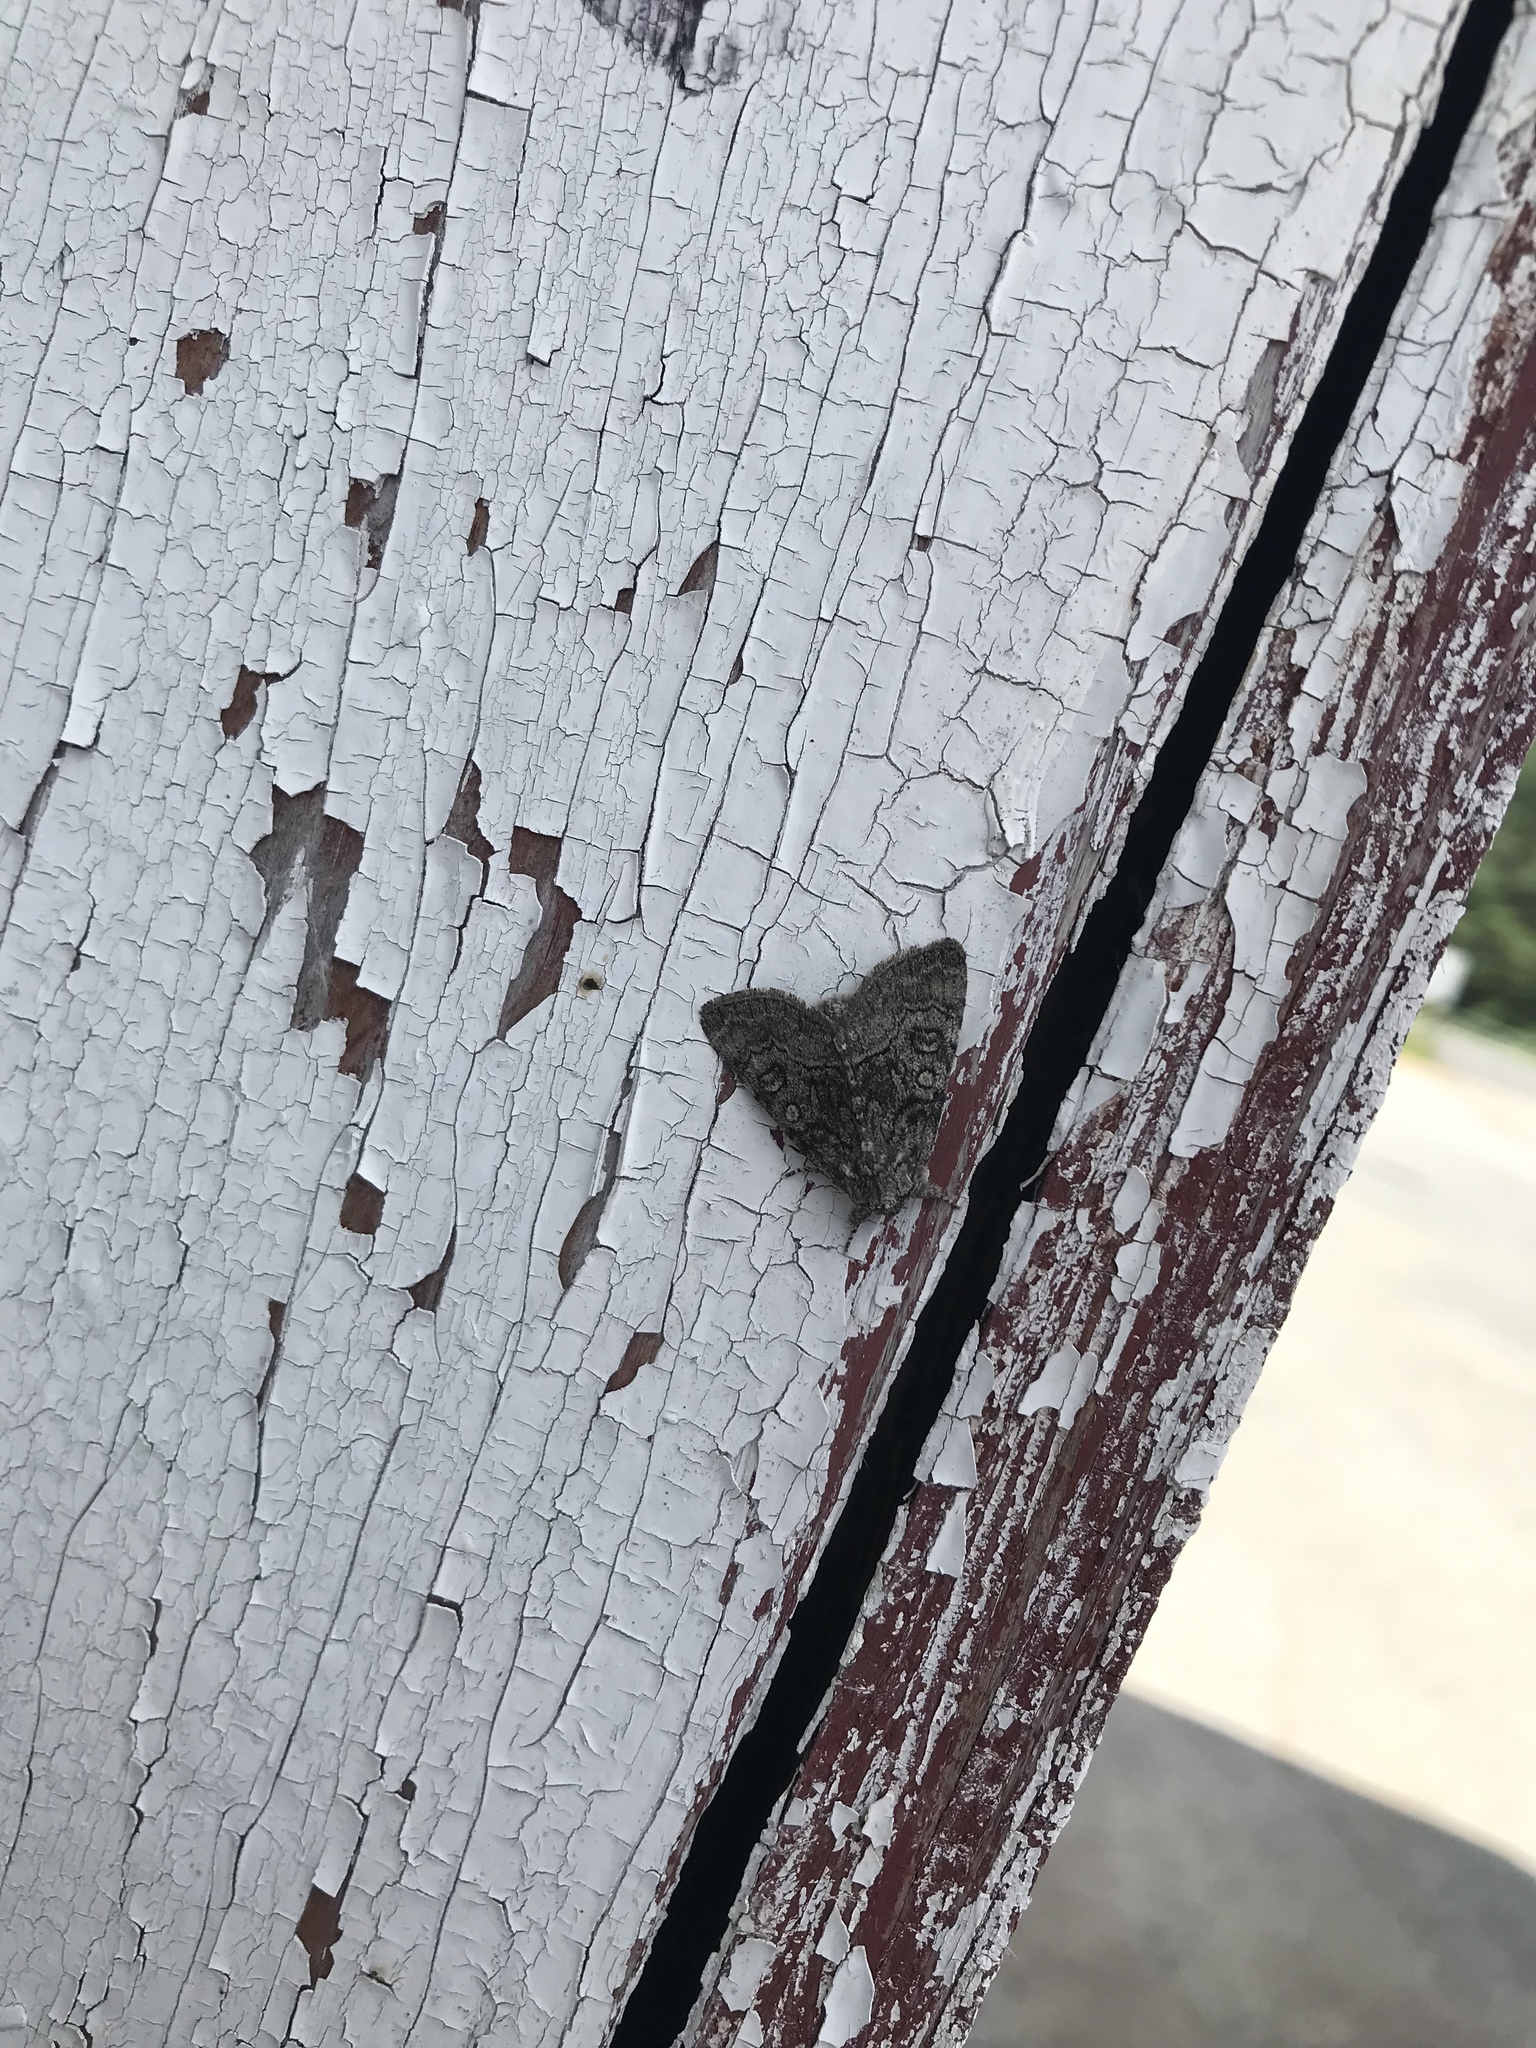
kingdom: Animalia
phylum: Arthropoda
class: Insecta
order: Lepidoptera
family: Noctuidae
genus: Raphia
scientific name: Raphia frater
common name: Brother
